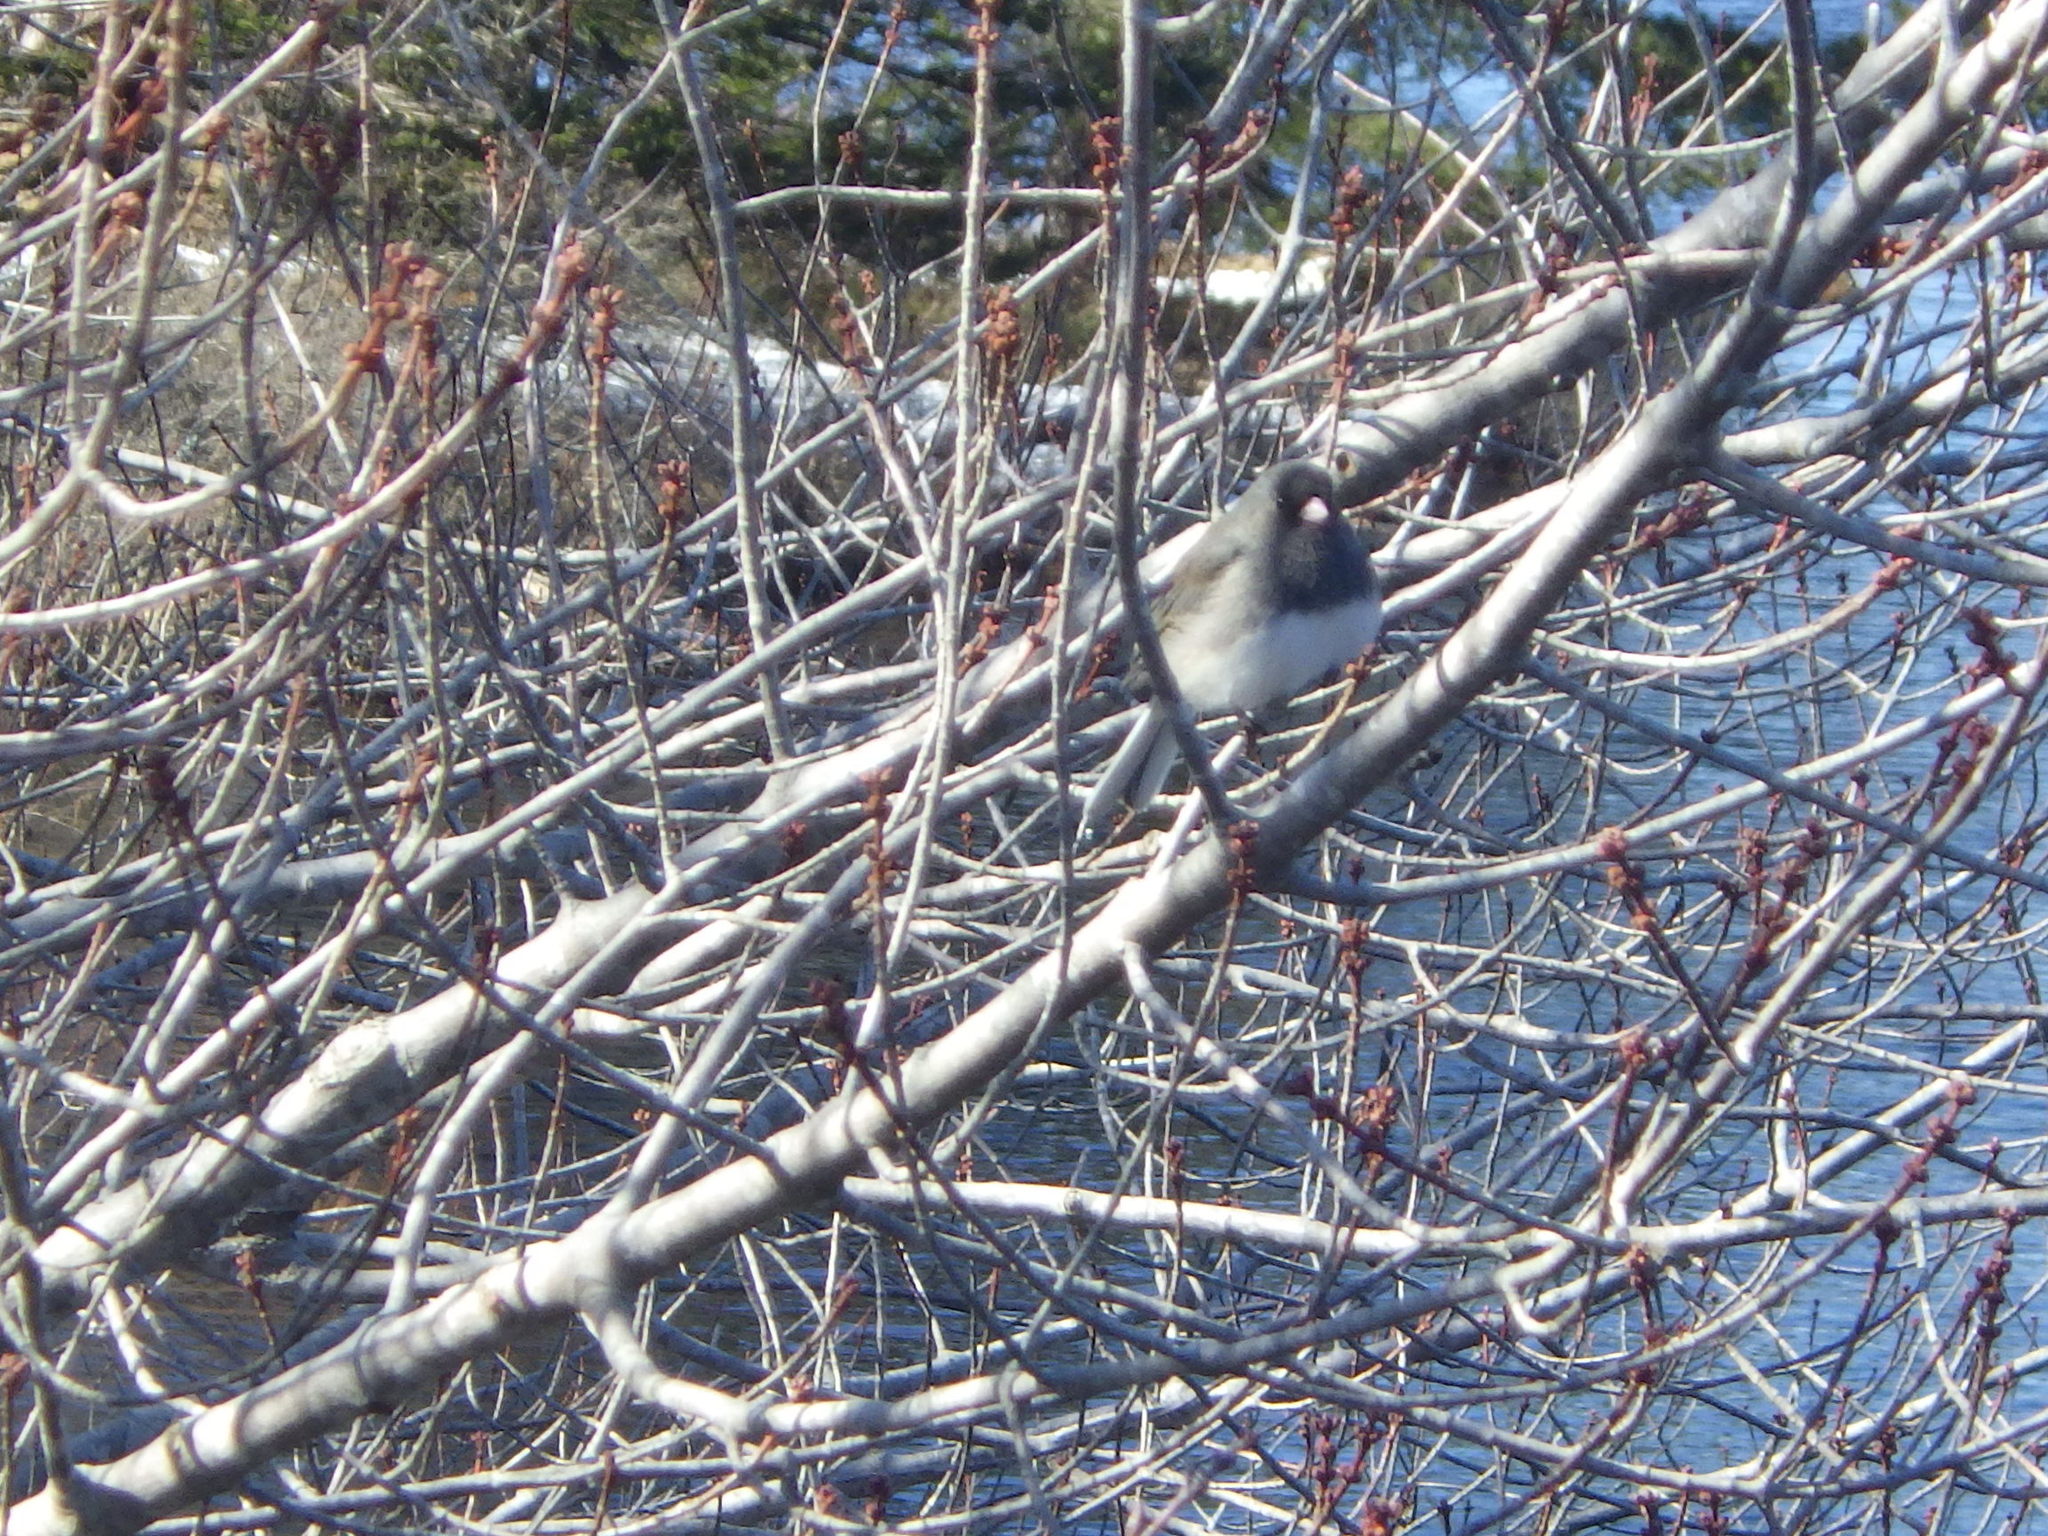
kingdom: Animalia
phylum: Chordata
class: Aves
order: Passeriformes
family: Passerellidae
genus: Junco
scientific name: Junco hyemalis
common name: Dark-eyed junco
